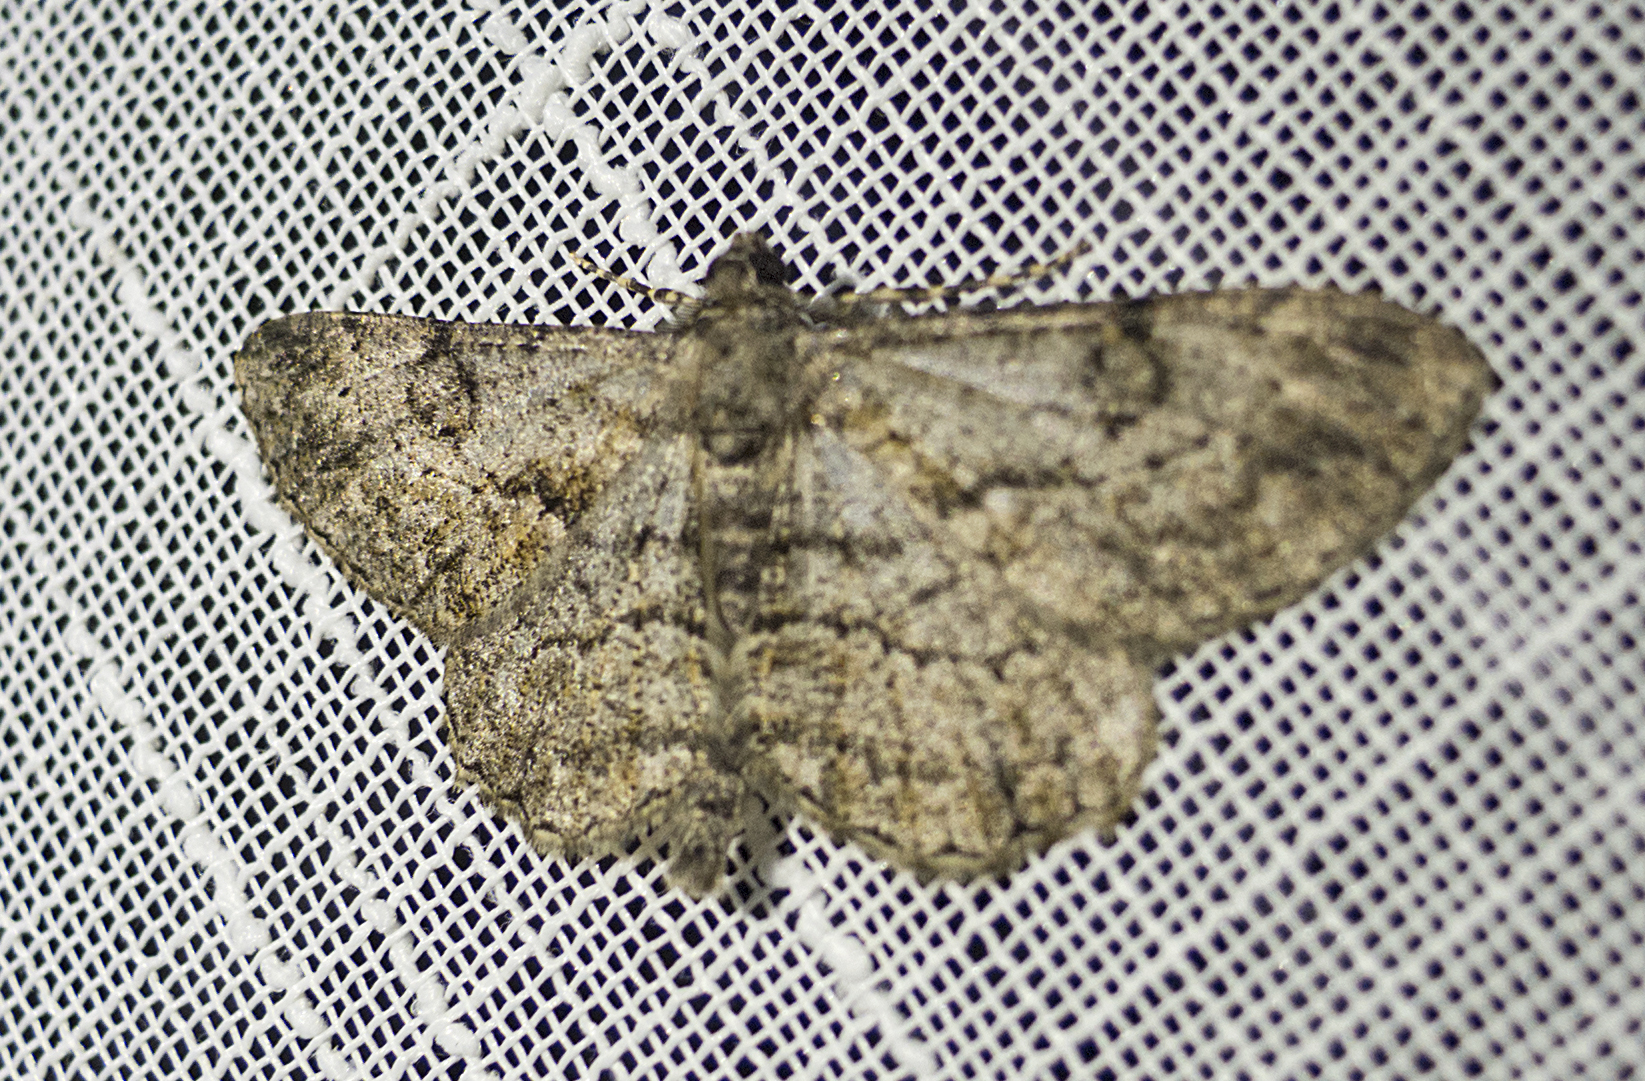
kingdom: Animalia
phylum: Arthropoda
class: Insecta
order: Lepidoptera
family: Geometridae
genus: Peribatodes
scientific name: Peribatodes rhomboidaria
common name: Willow beauty
